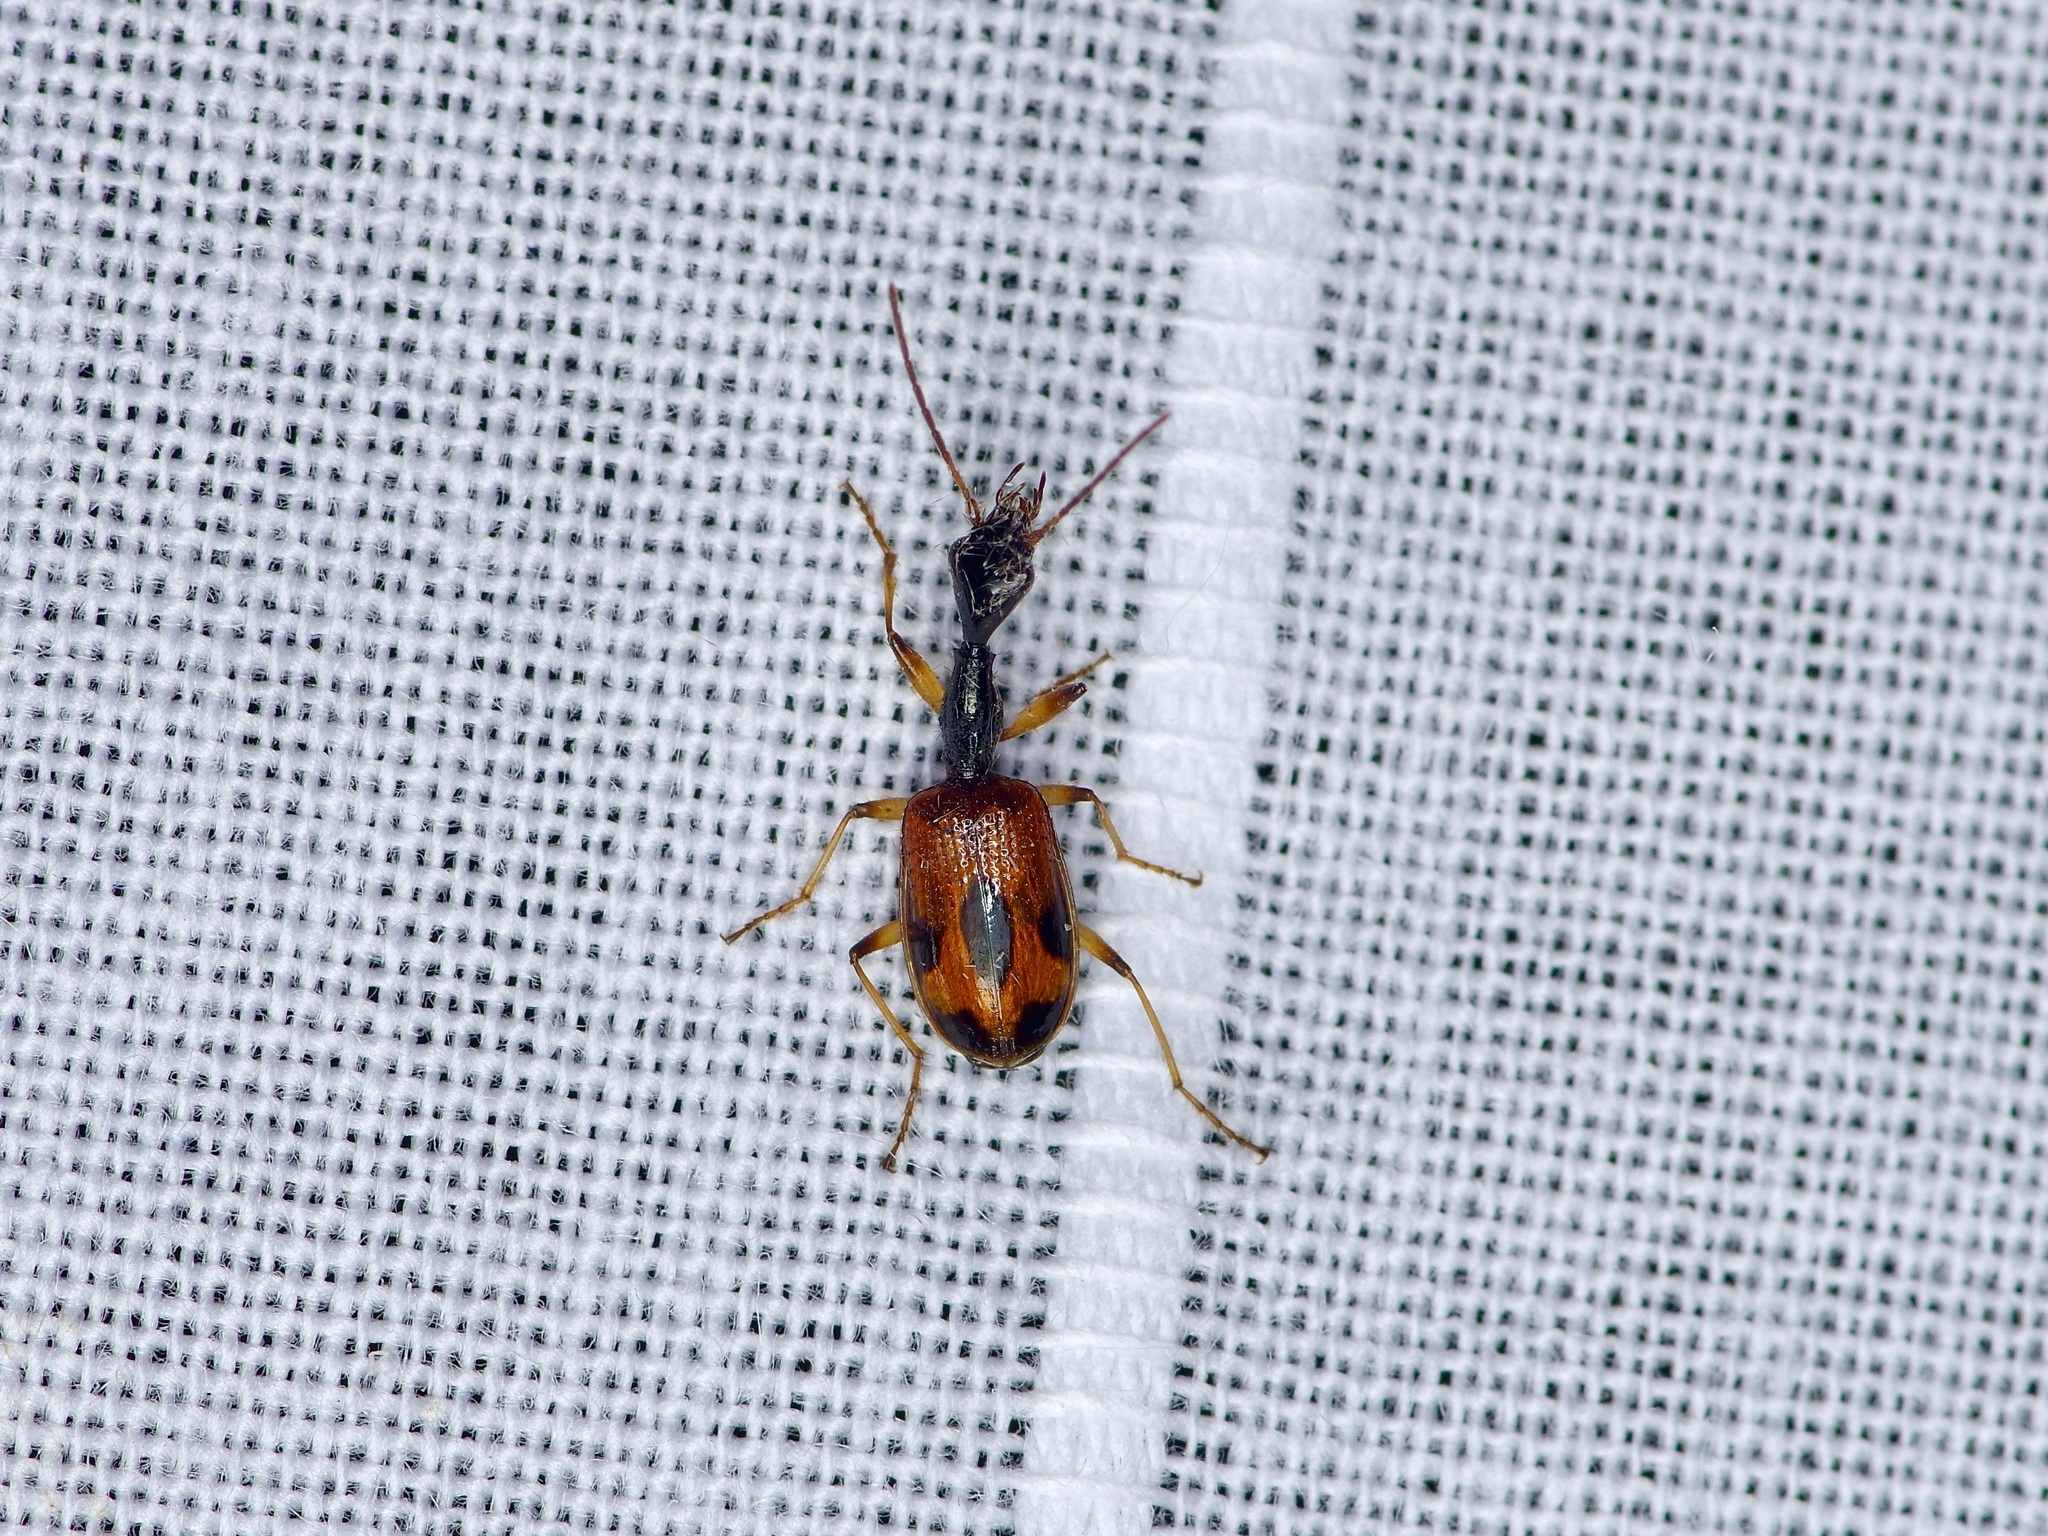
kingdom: Animalia
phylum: Arthropoda
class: Insecta
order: Coleoptera
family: Carabidae
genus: Colliuris
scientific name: Colliuris pensylvanica
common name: Long-necked ground beetle
